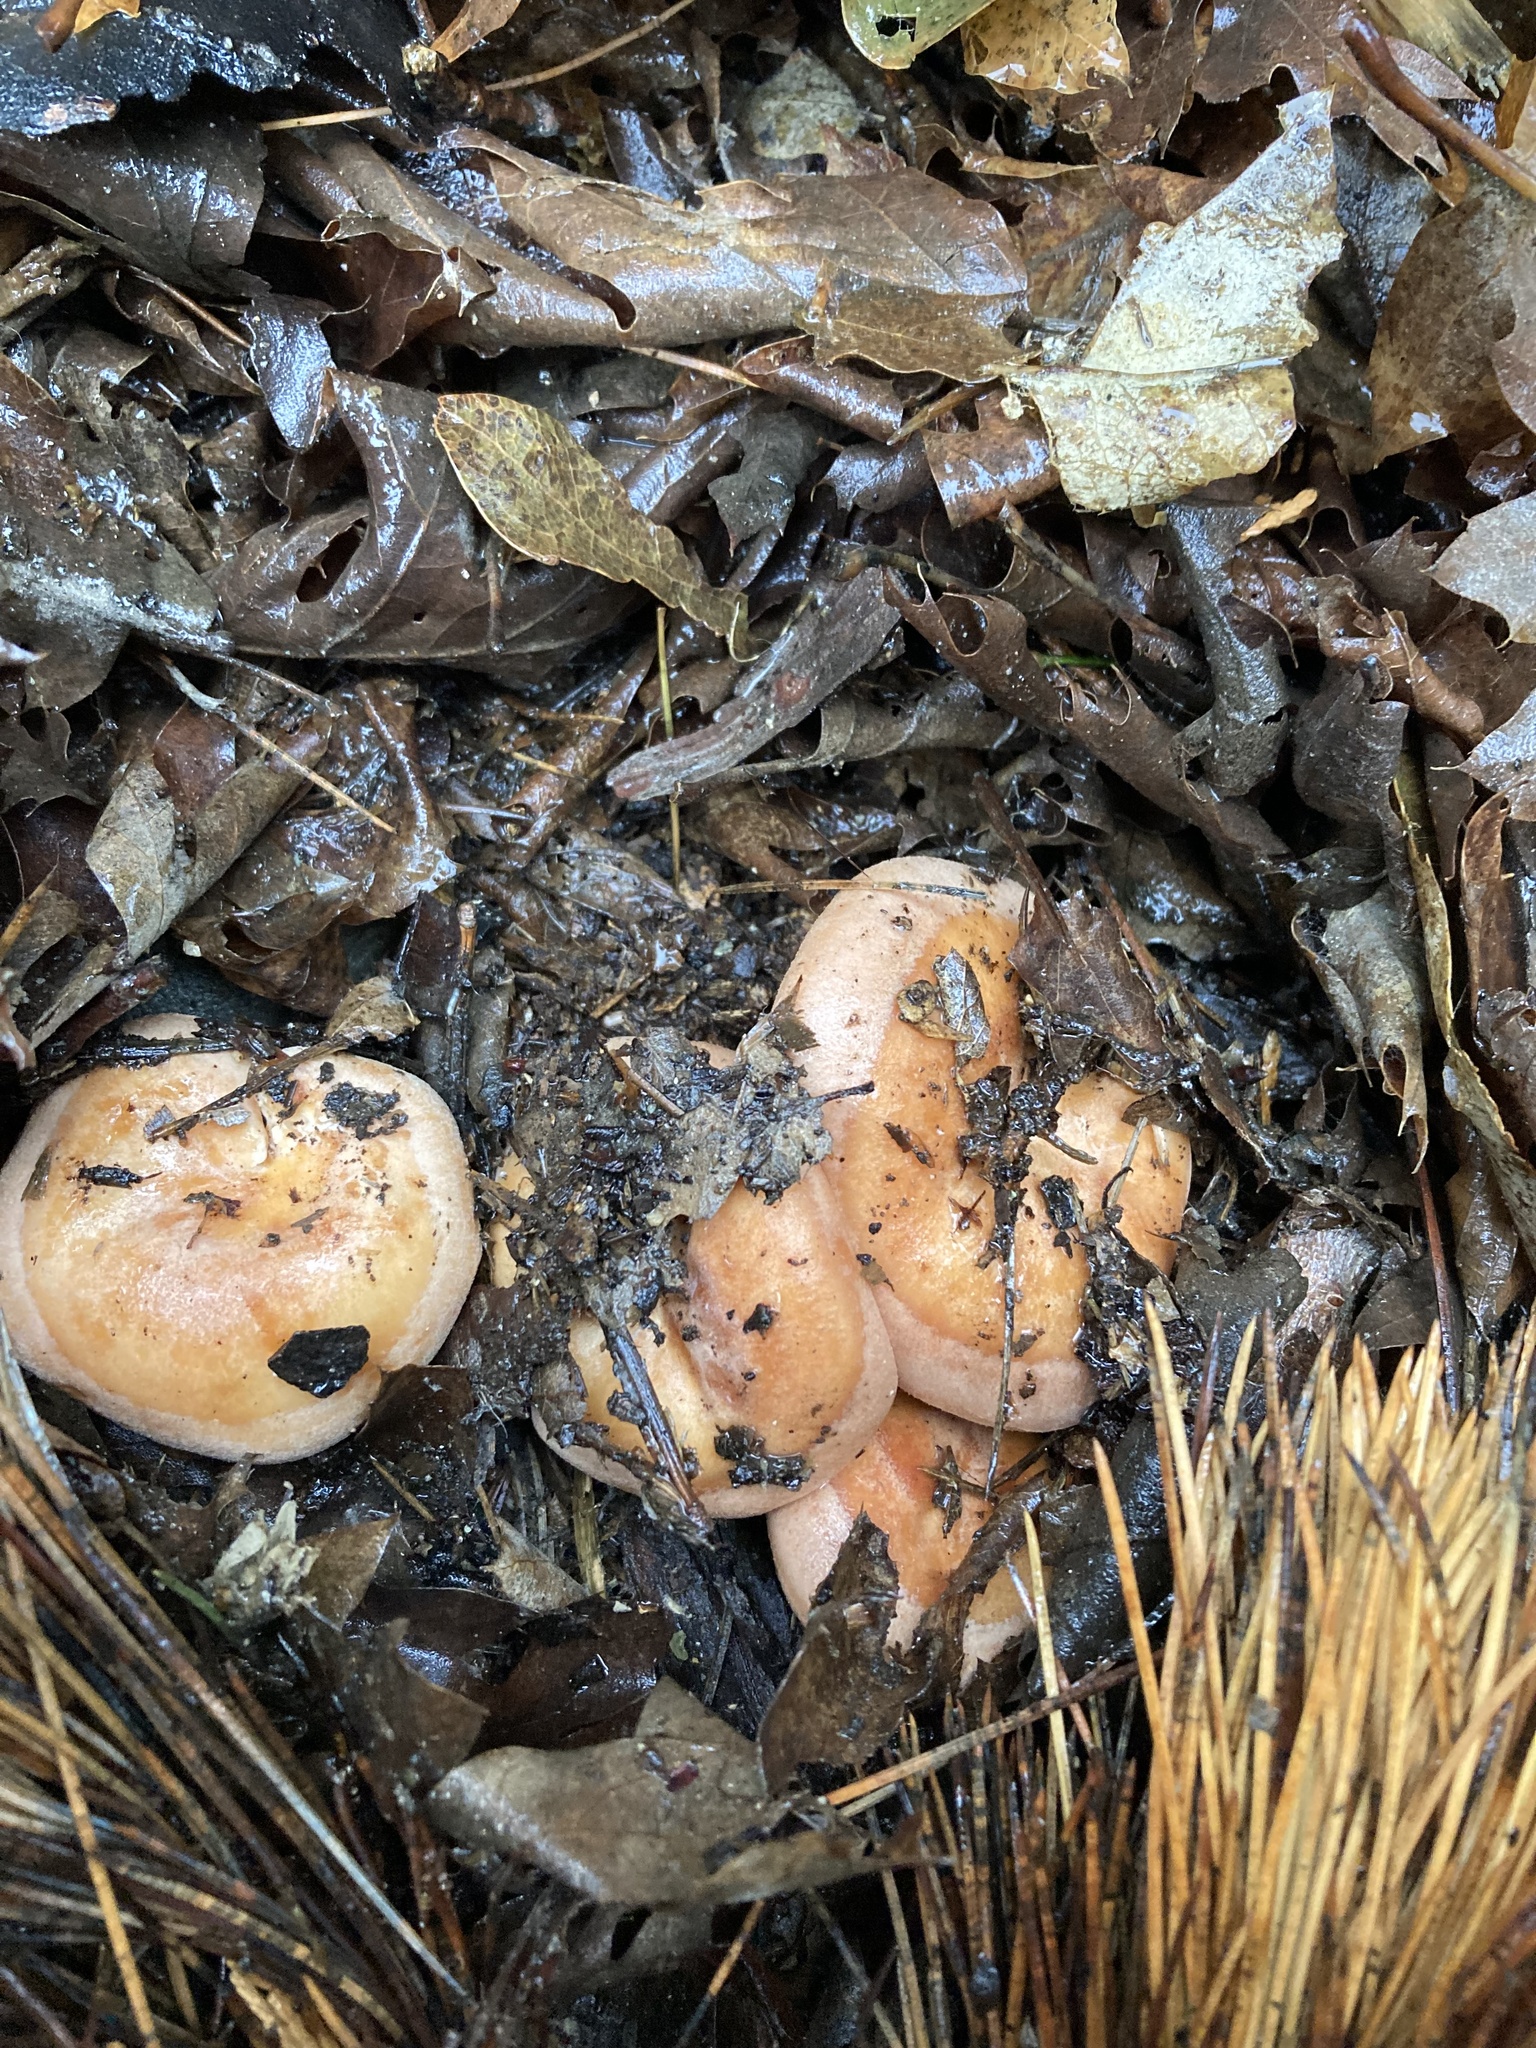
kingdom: Fungi
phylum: Basidiomycota
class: Agaricomycetes
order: Russulales
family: Russulaceae
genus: Lactarius
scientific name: Lactarius xanthogalactus
